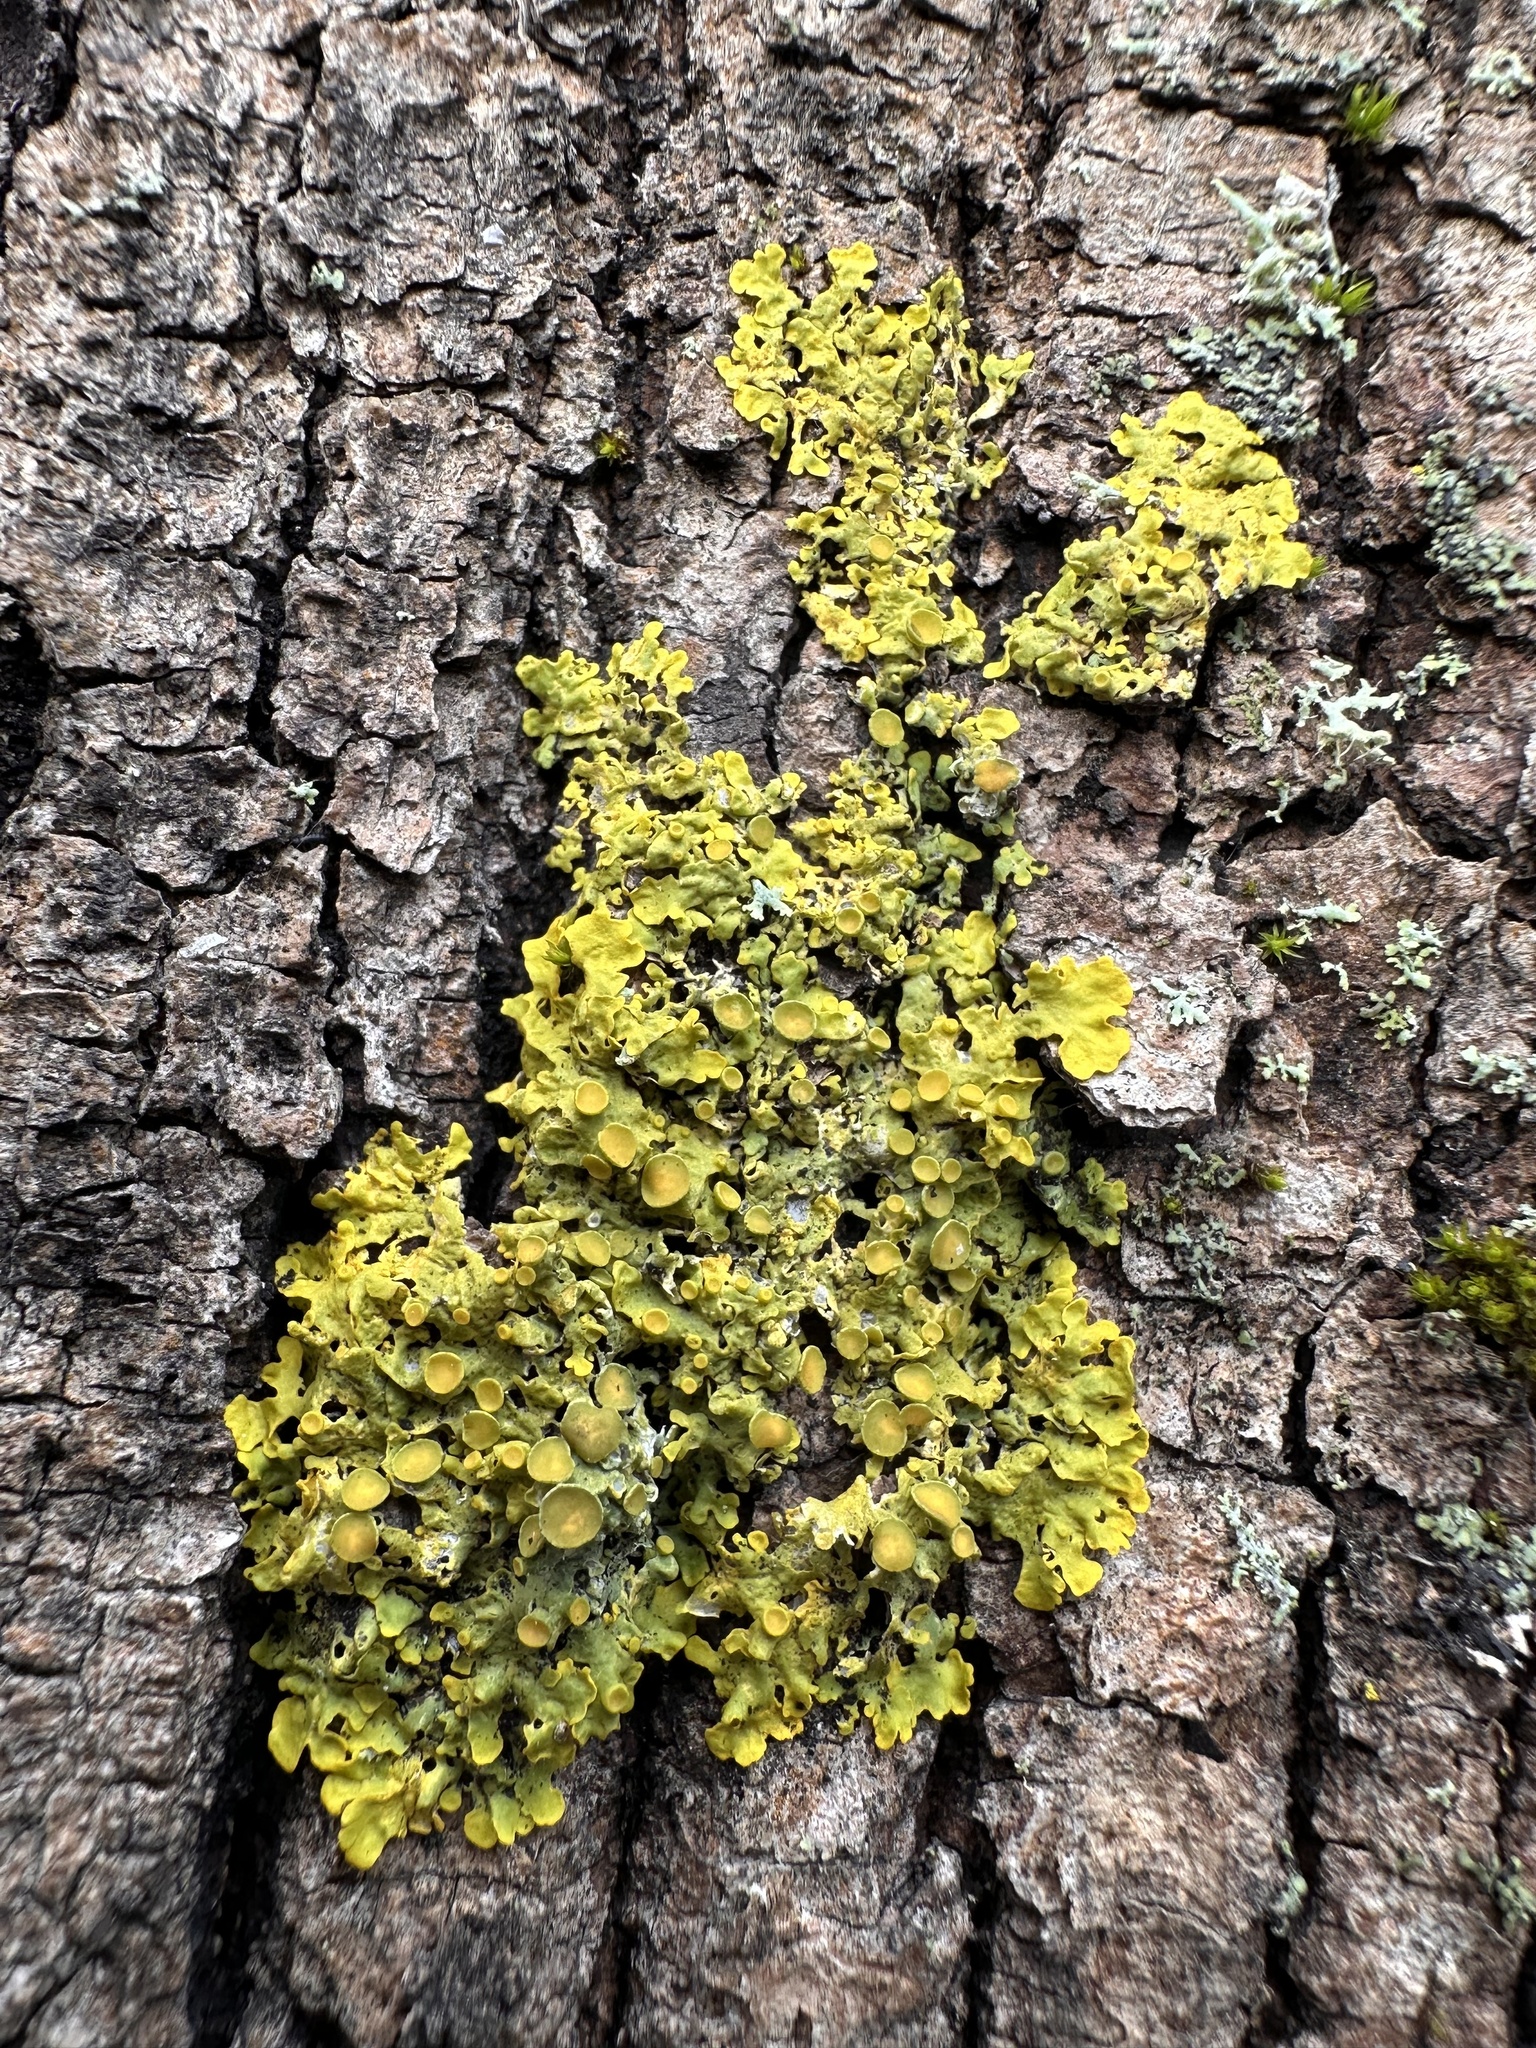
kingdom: Fungi
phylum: Ascomycota
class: Lecanoromycetes
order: Teloschistales
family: Teloschistaceae
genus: Xanthoria
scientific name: Xanthoria parietina
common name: Common orange lichen
